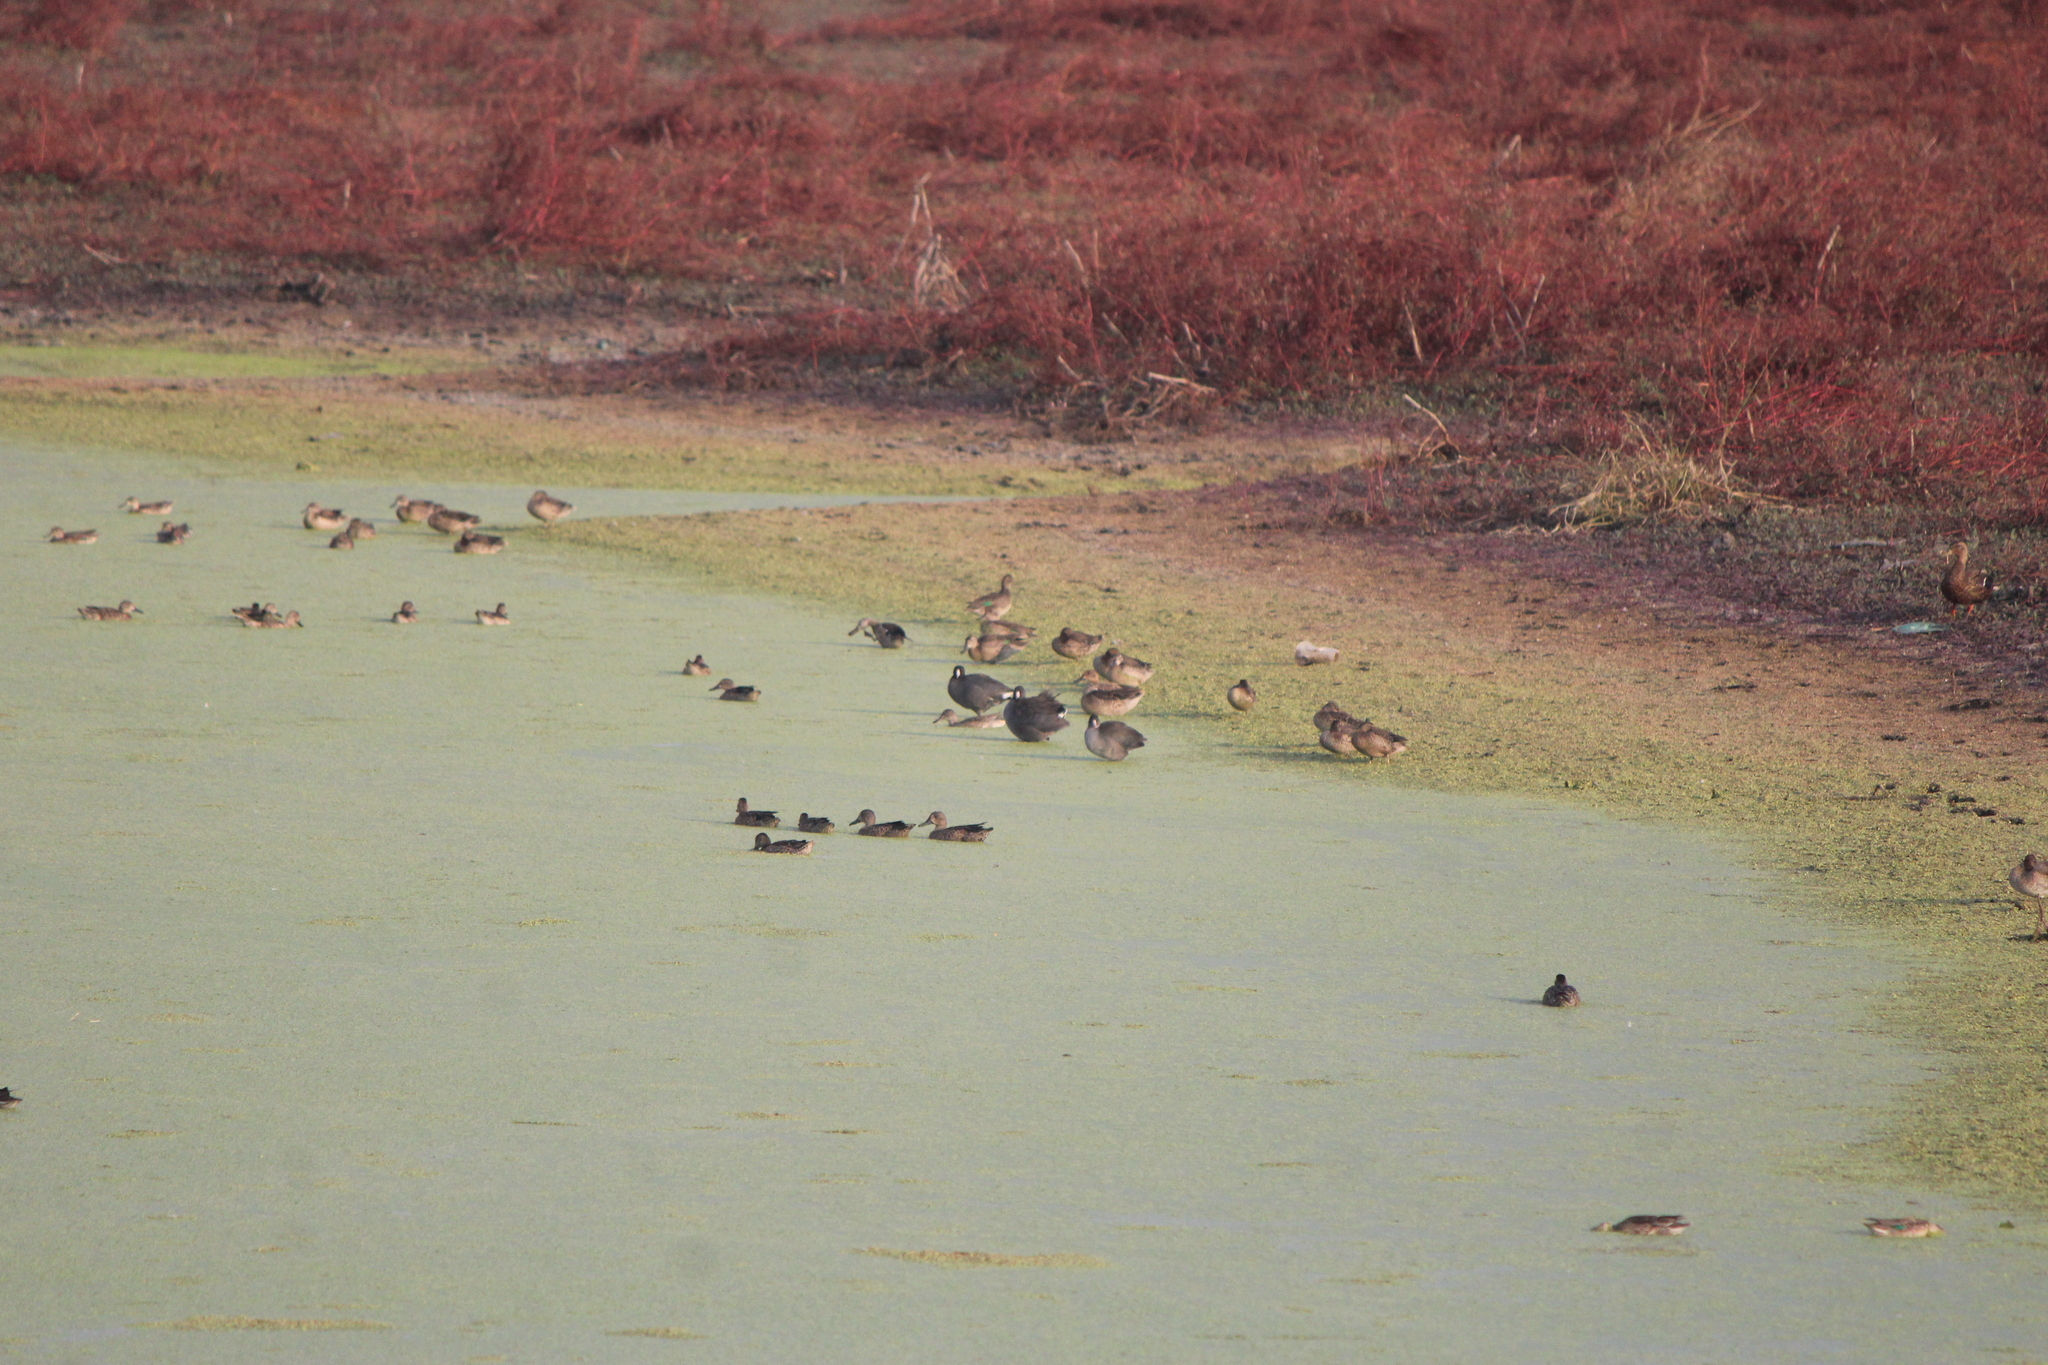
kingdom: Animalia
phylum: Chordata
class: Aves
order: Anseriformes
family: Anatidae
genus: Anas
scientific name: Anas carolinensis
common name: Green-winged teal
